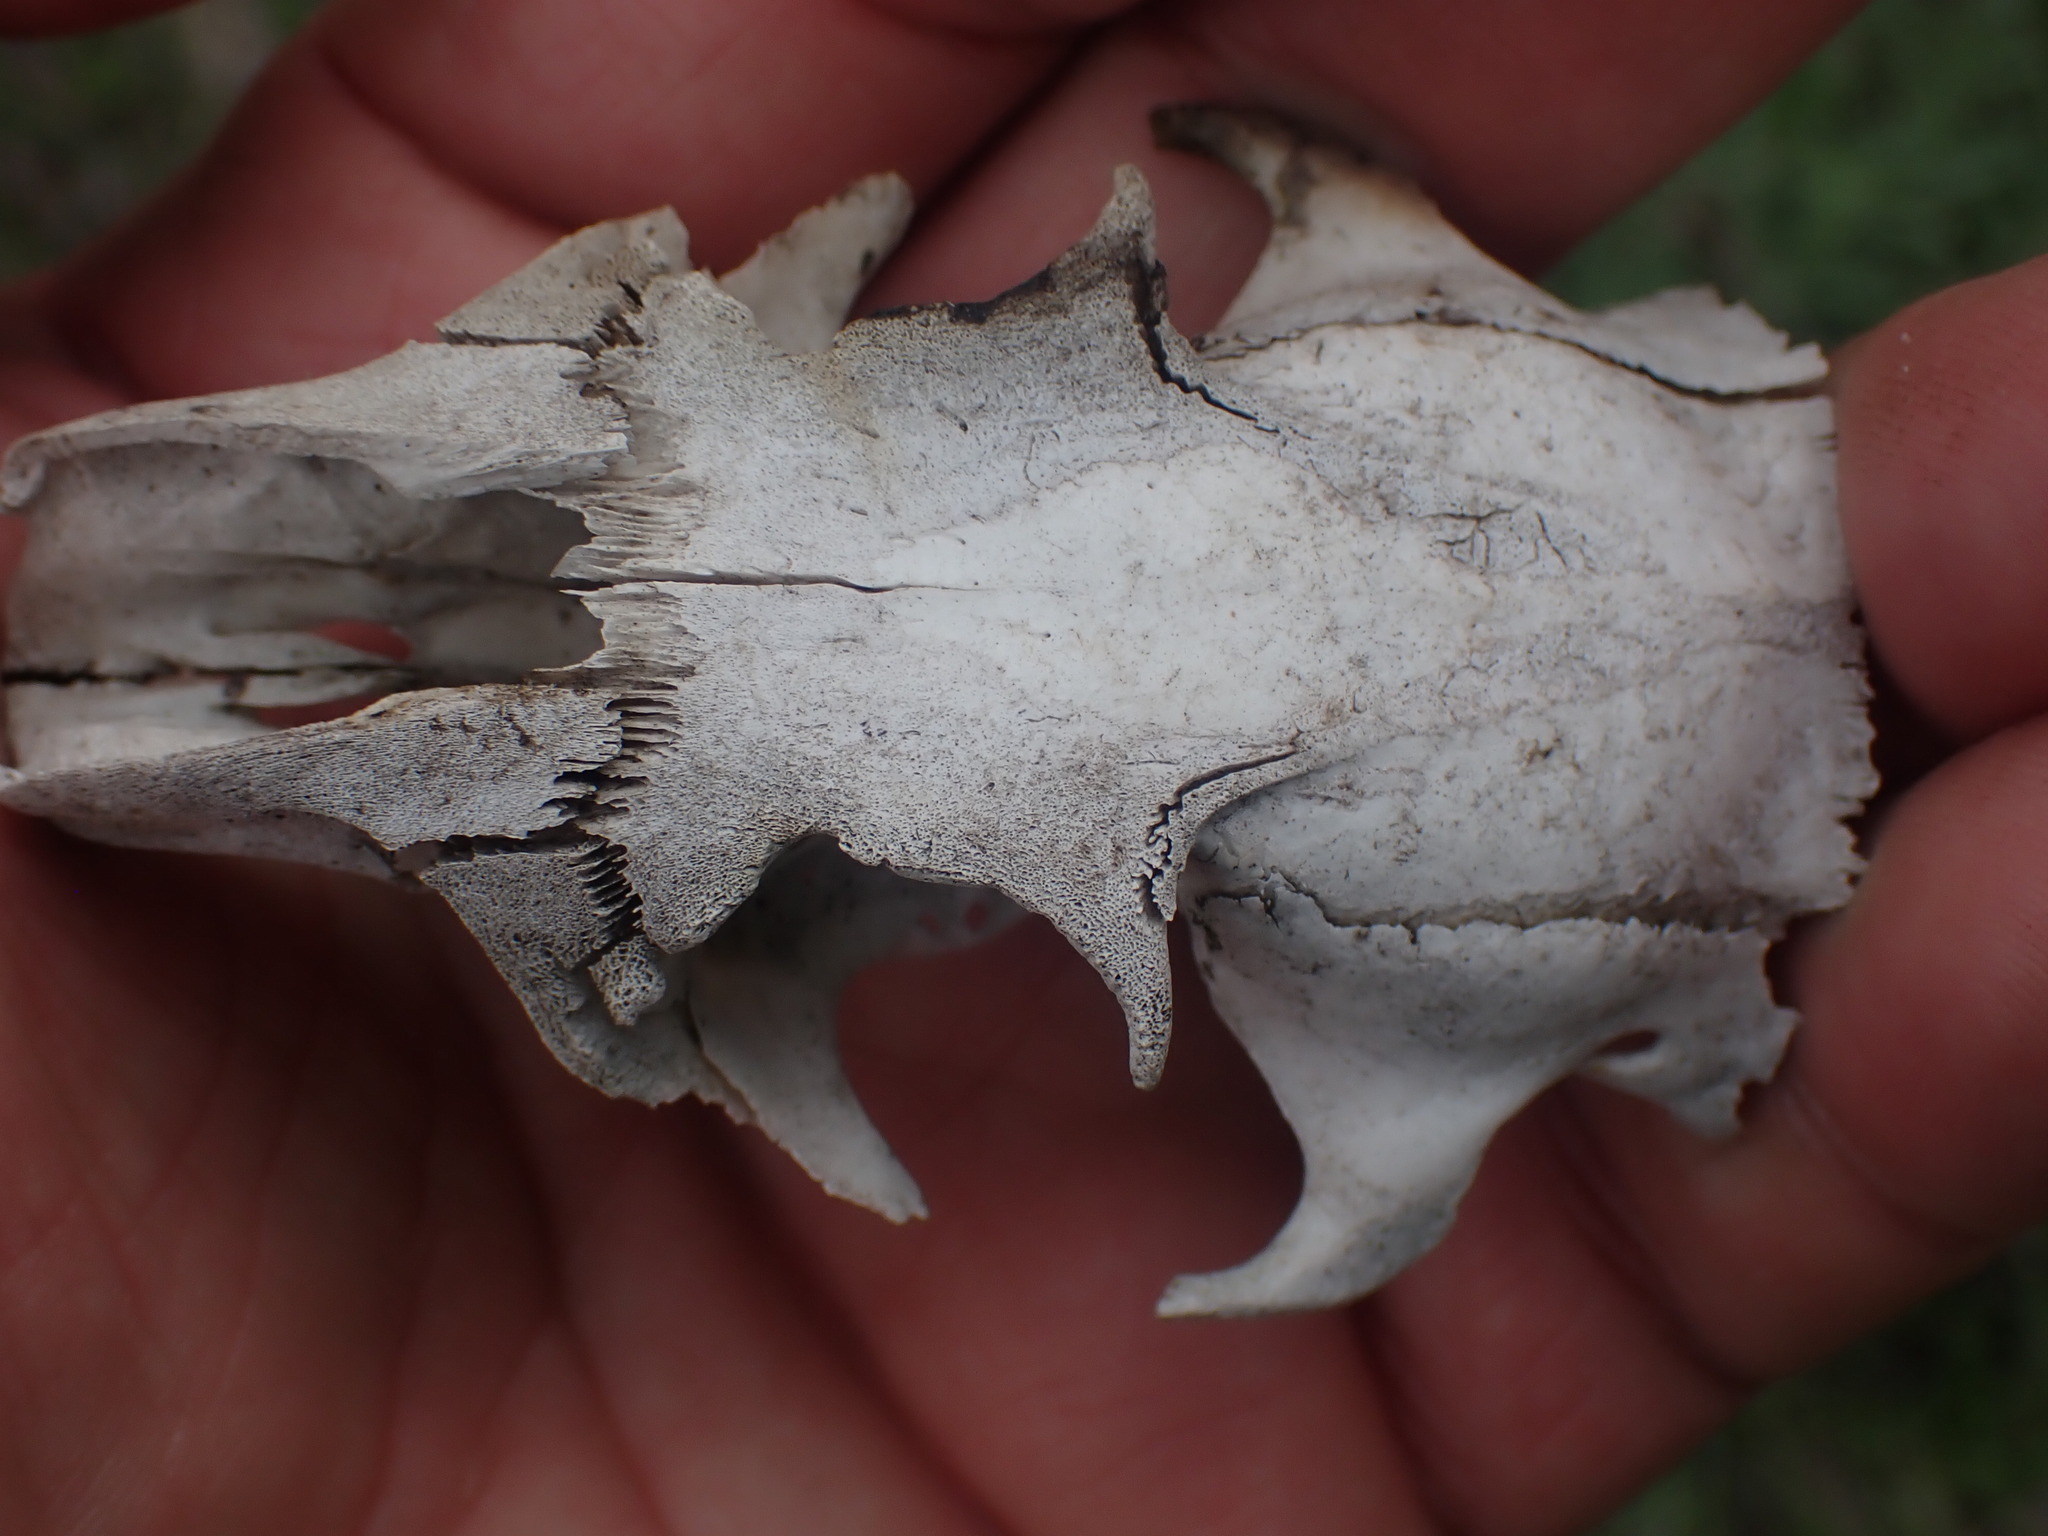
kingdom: Animalia
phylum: Chordata
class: Mammalia
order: Rodentia
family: Sciuridae
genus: Marmota
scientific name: Marmota flaviventris
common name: Yellow-bellied marmot
